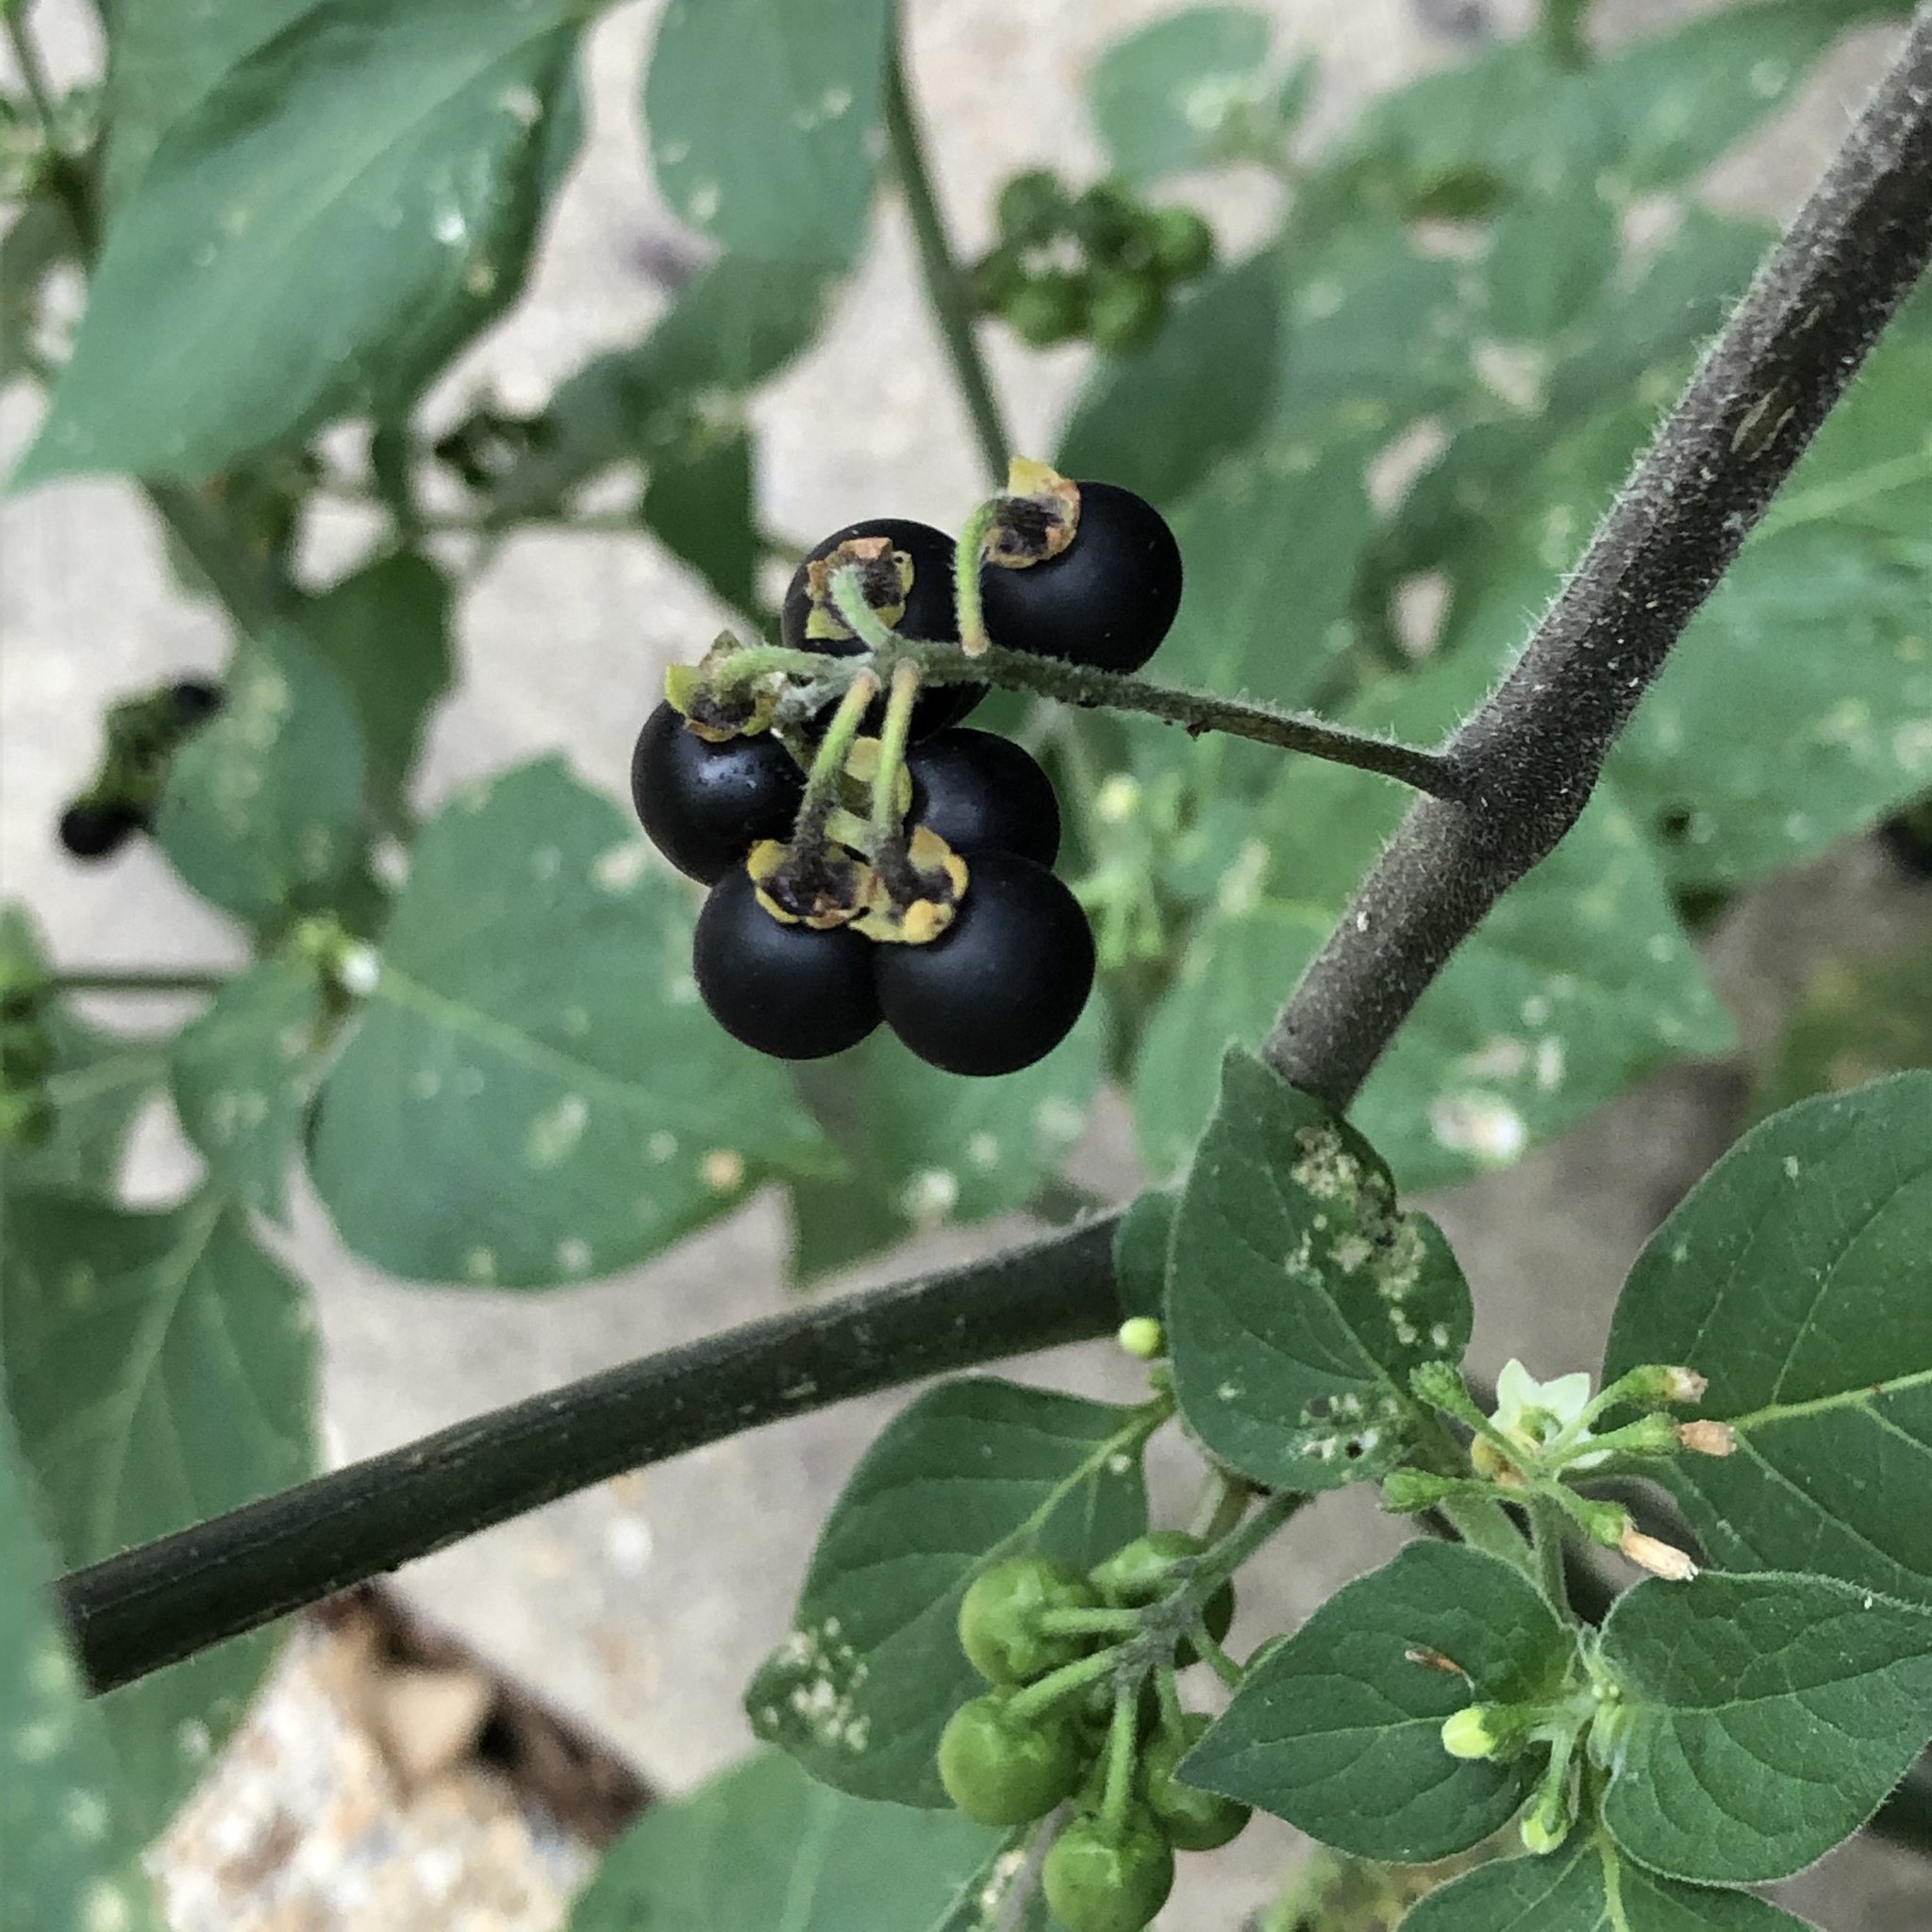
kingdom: Plantae
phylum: Tracheophyta
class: Magnoliopsida
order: Solanales
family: Solanaceae
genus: Solanum
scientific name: Solanum nigrum
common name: Black nightshade
